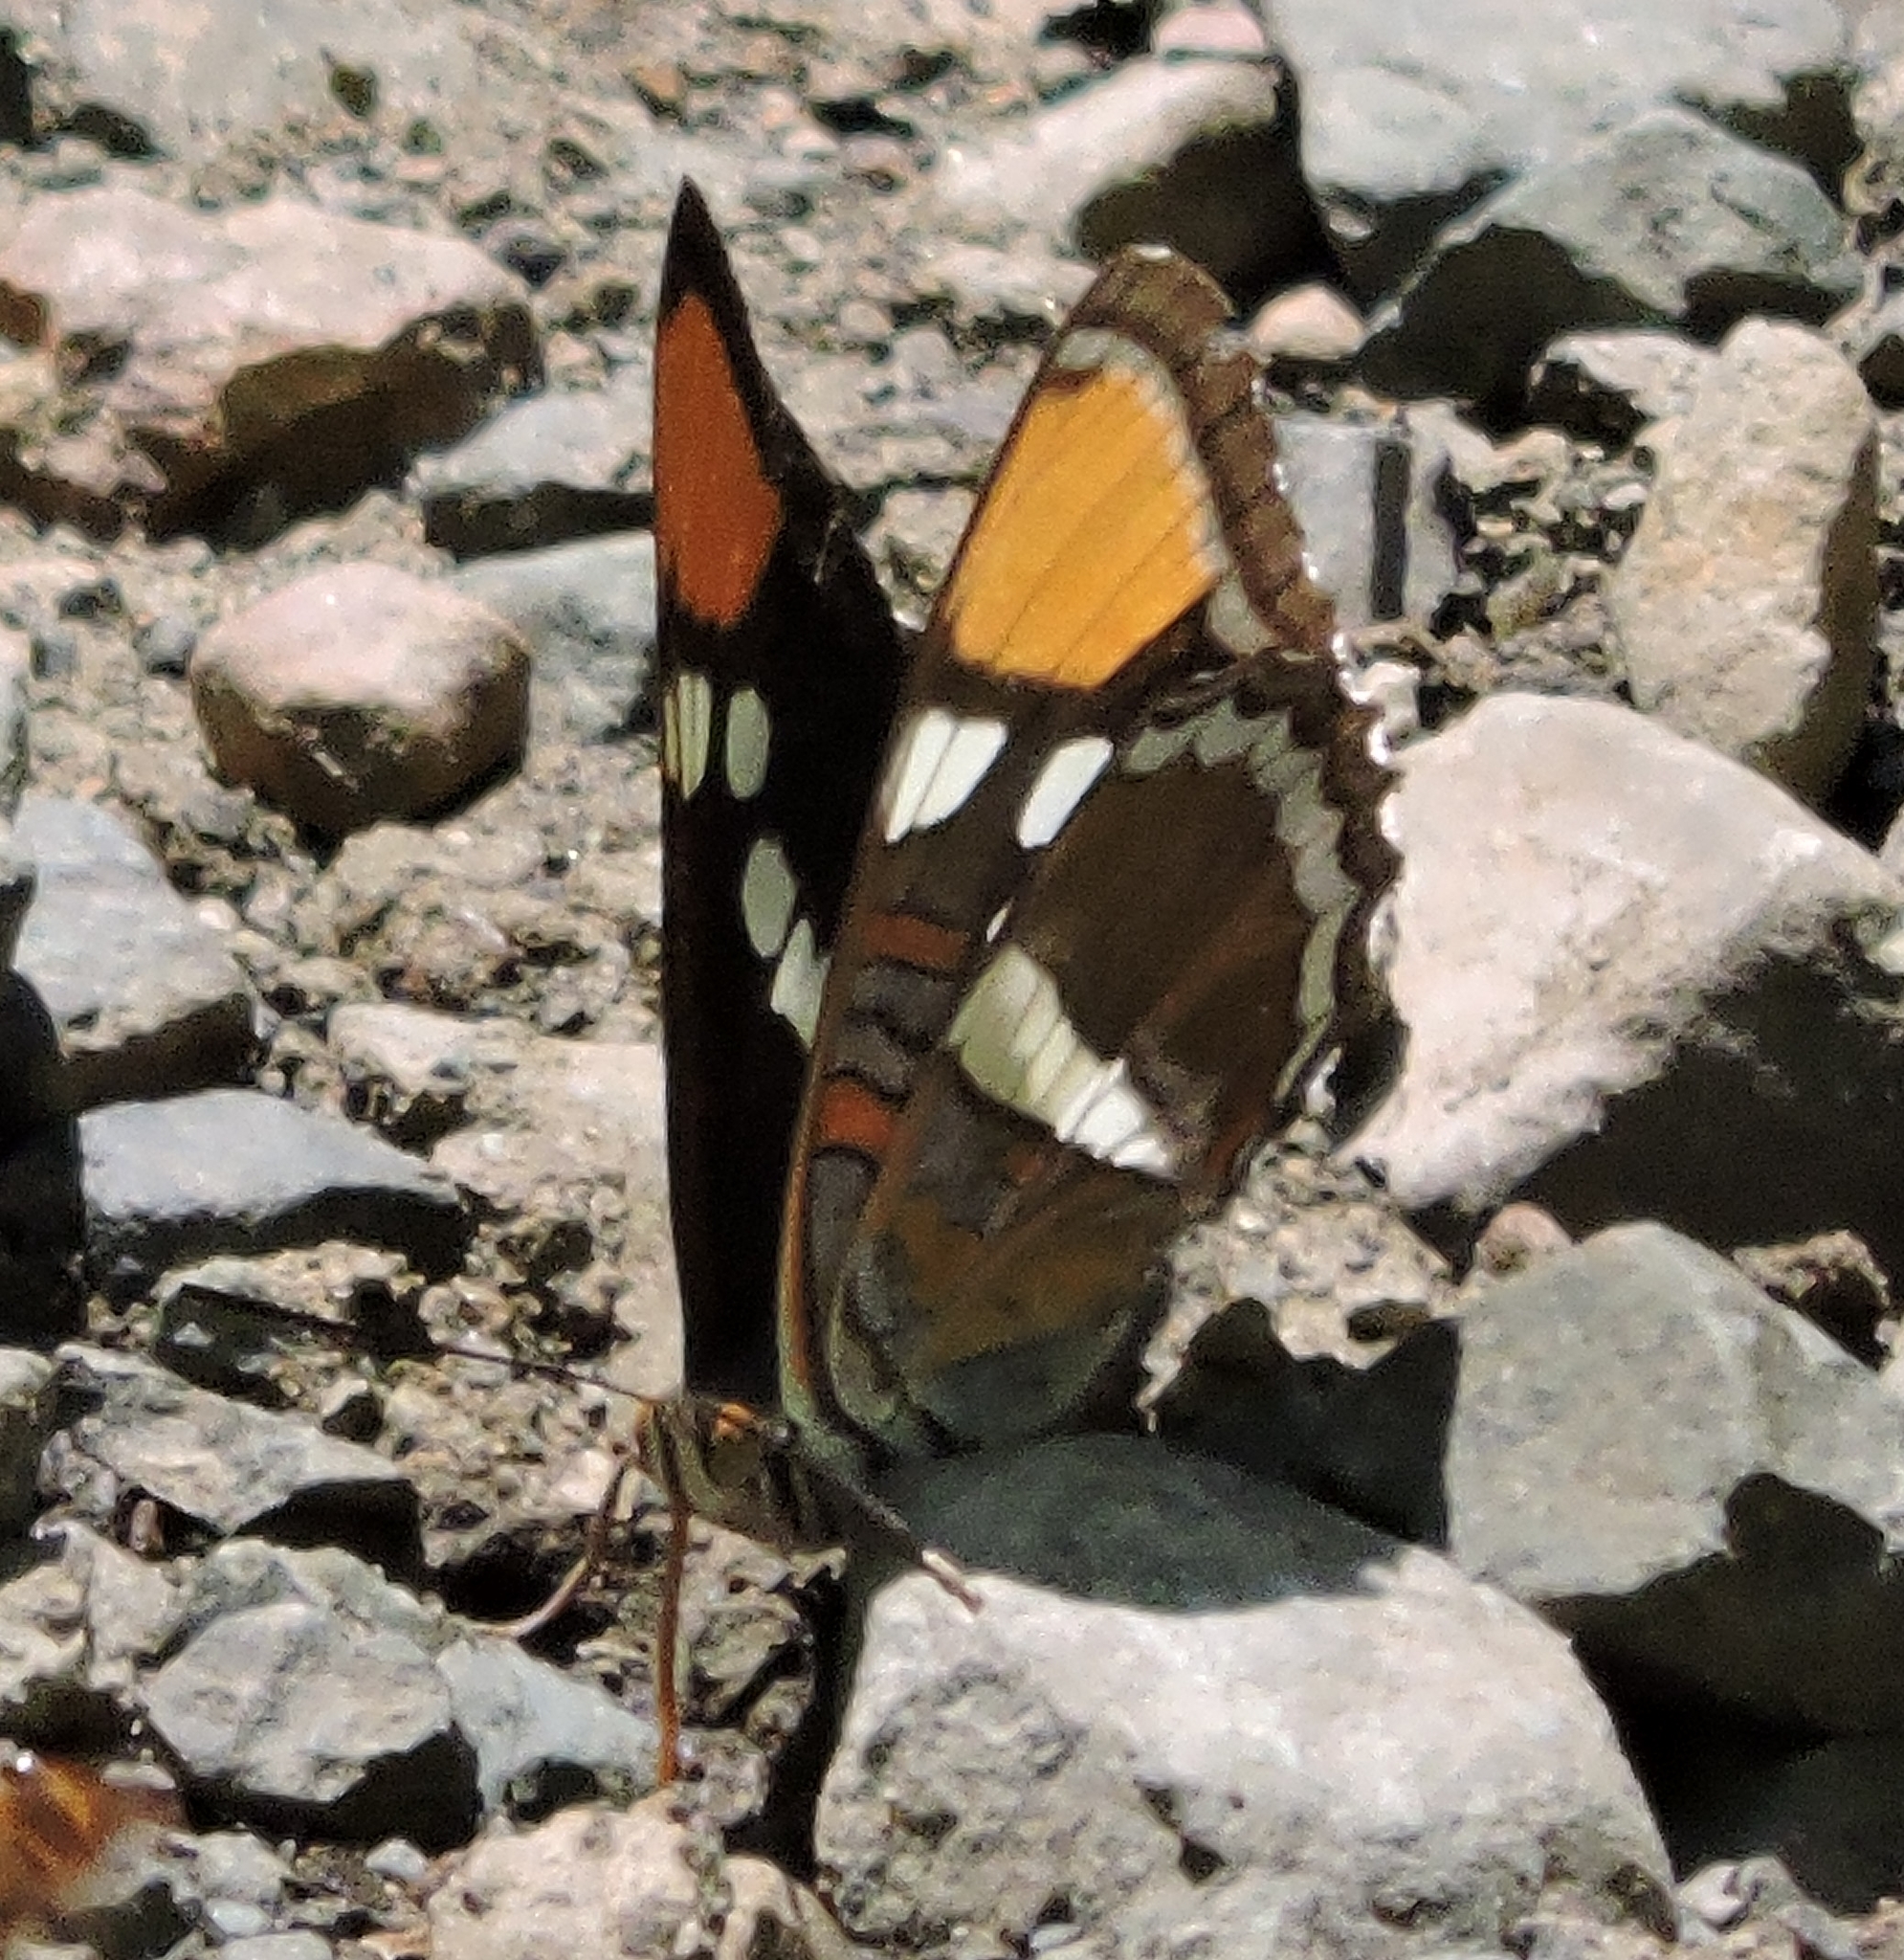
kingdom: Animalia
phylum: Arthropoda
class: Insecta
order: Lepidoptera
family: Nymphalidae
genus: Limenitis
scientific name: Limenitis bredowii
